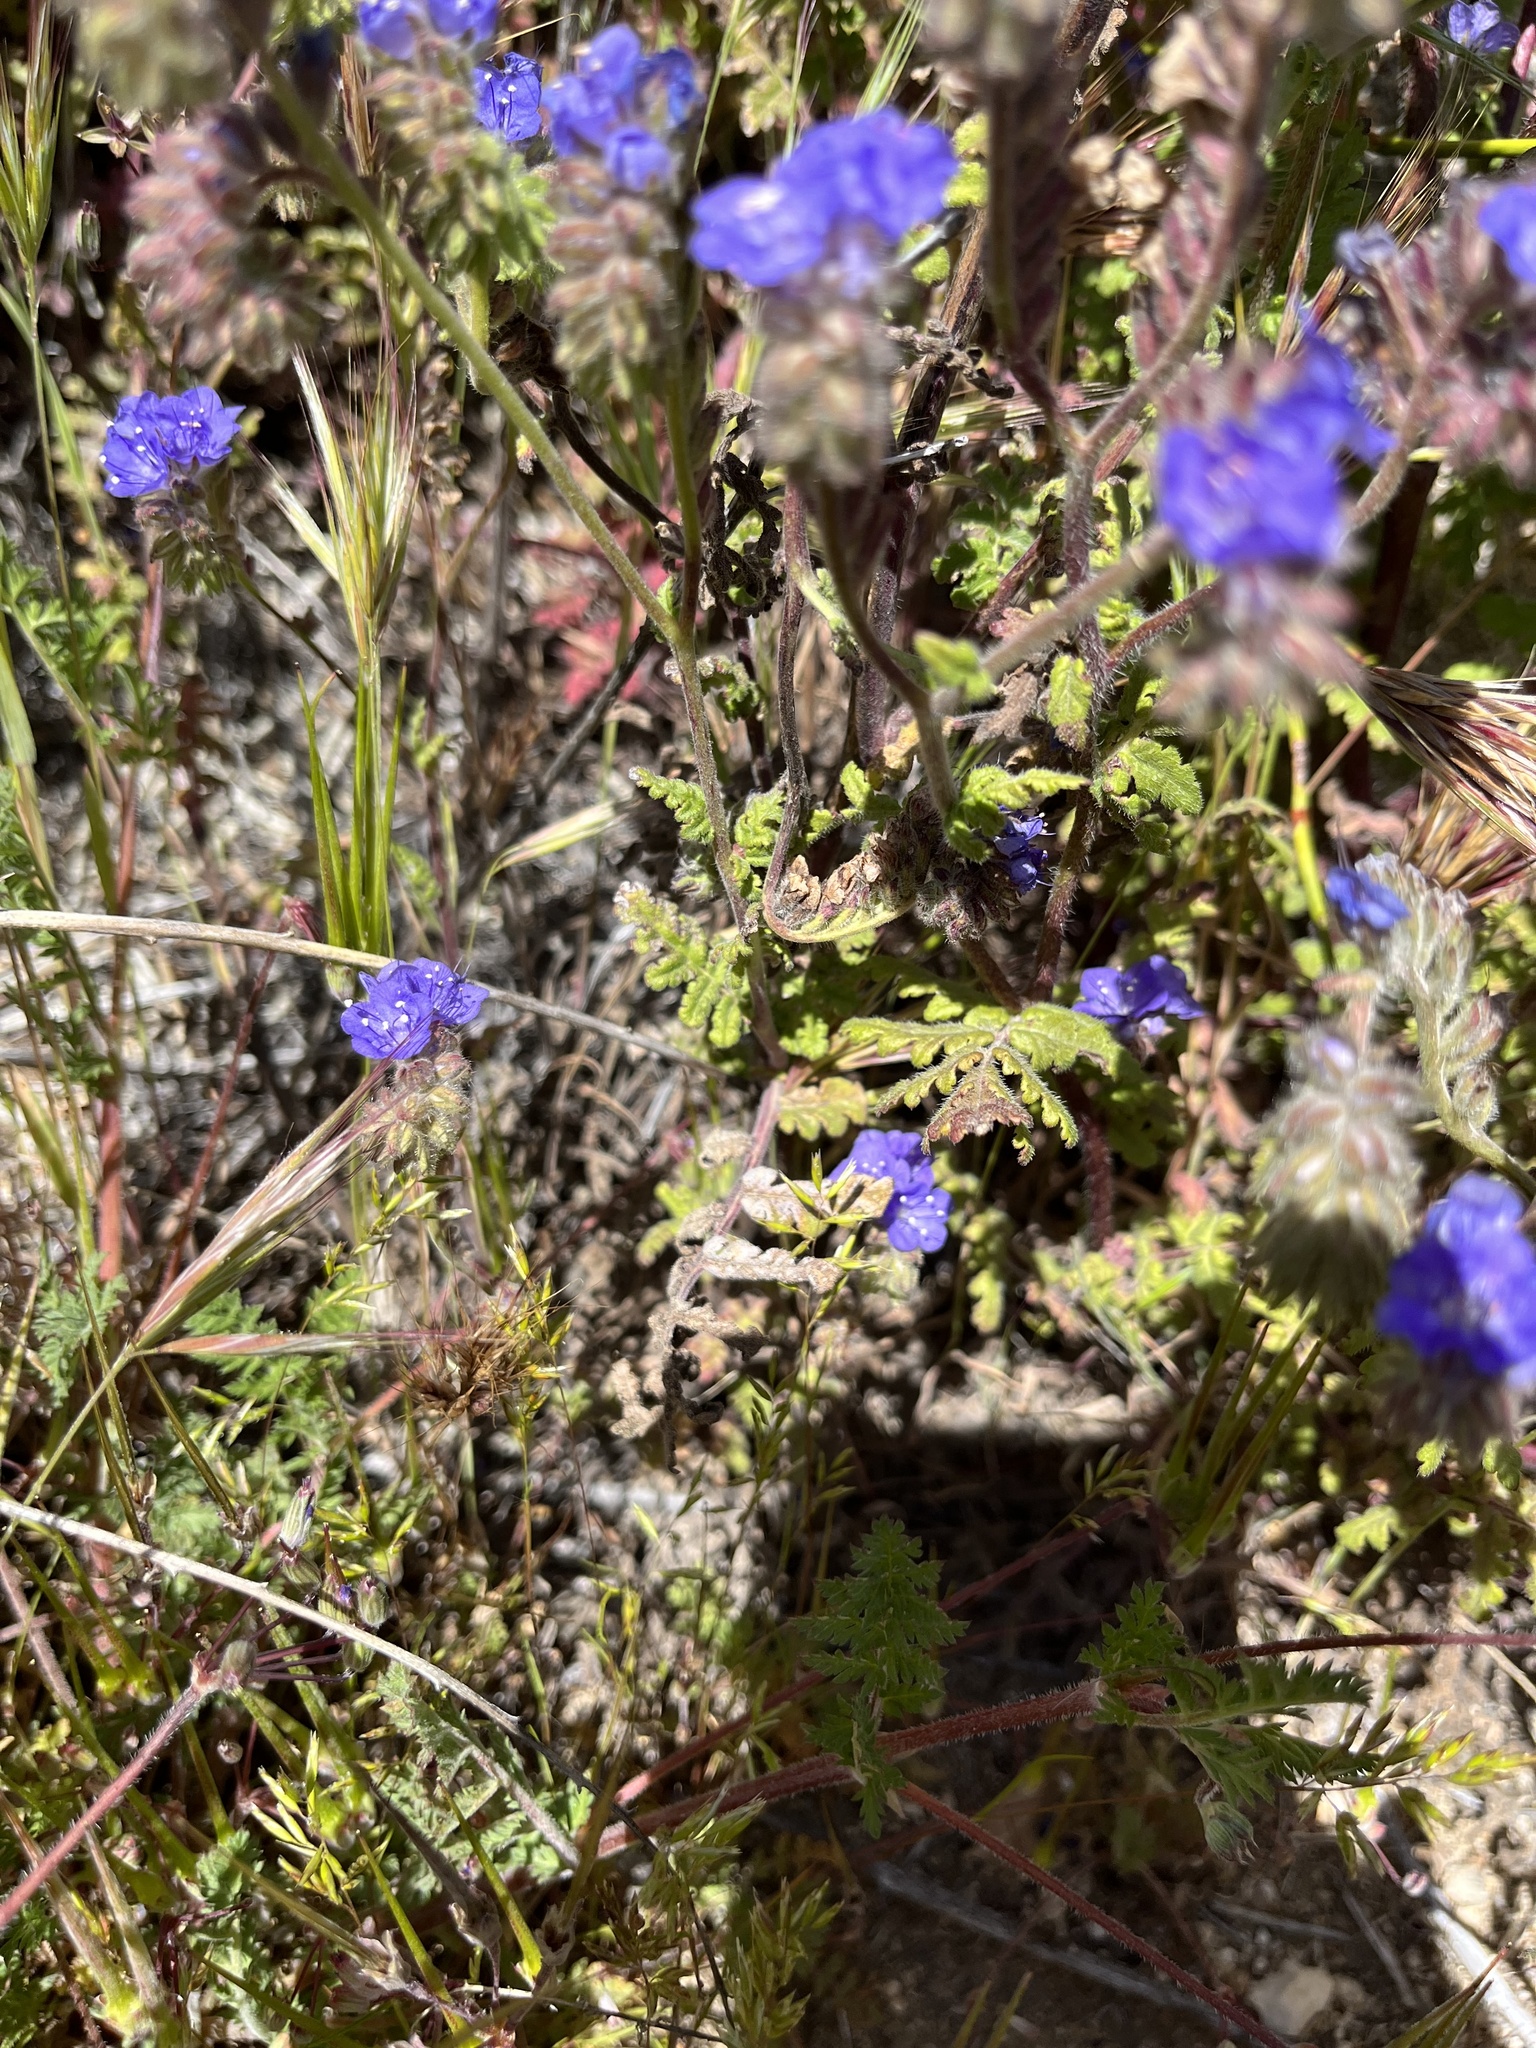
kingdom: Plantae
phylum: Tracheophyta
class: Magnoliopsida
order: Boraginales
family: Hydrophyllaceae
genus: Phacelia
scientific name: Phacelia distans
